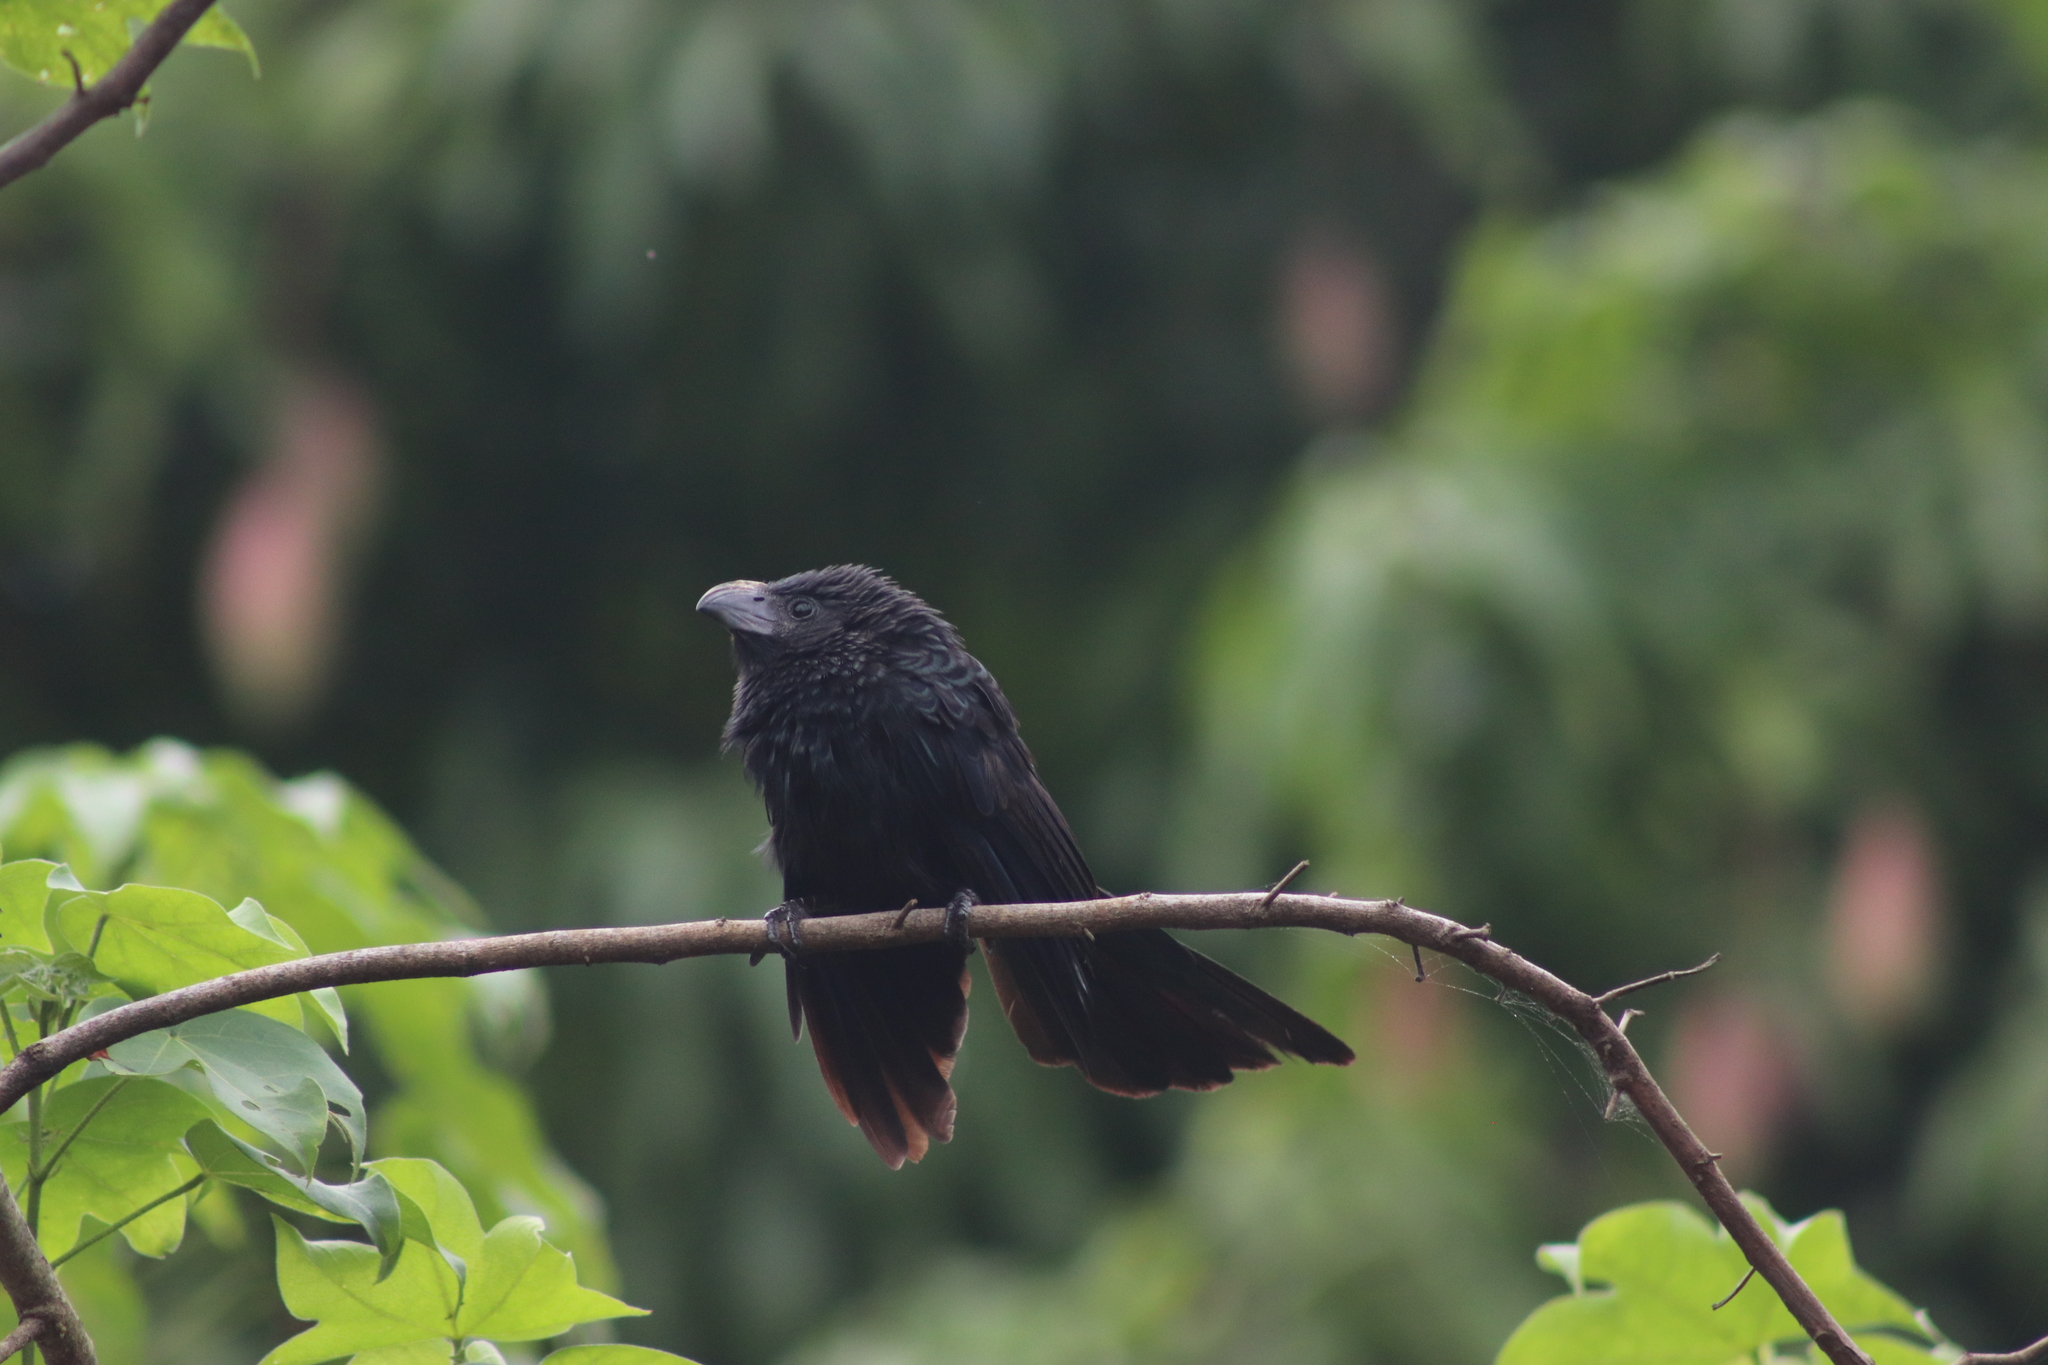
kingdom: Animalia
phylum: Chordata
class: Aves
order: Cuculiformes
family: Cuculidae
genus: Crotophaga
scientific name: Crotophaga sulcirostris
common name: Groove-billed ani
